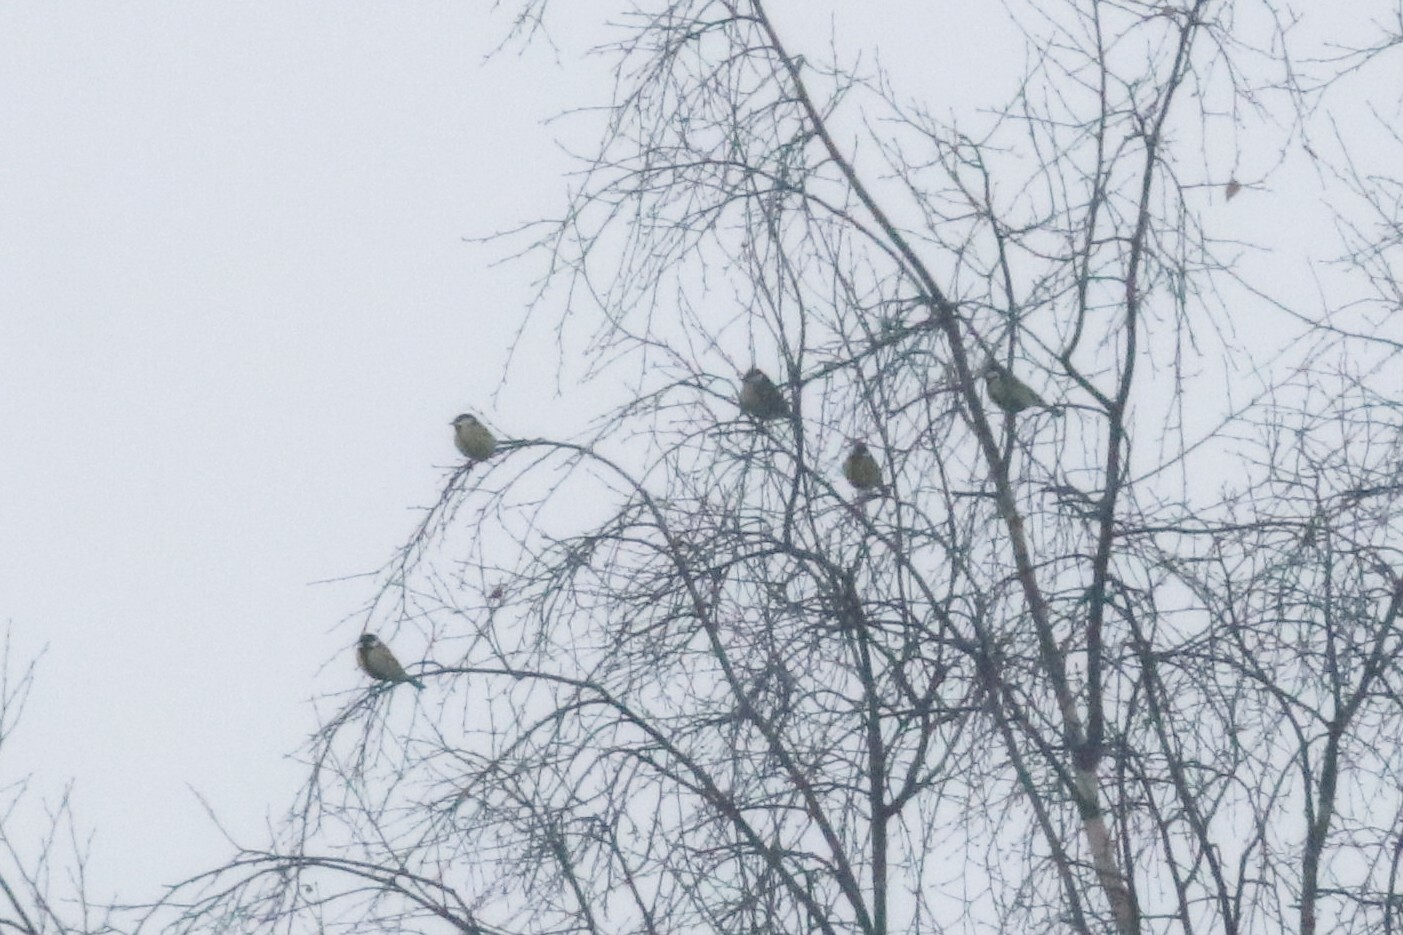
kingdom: Animalia
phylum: Chordata
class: Aves
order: Passeriformes
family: Paridae
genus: Parus
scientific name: Parus major
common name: Great tit
